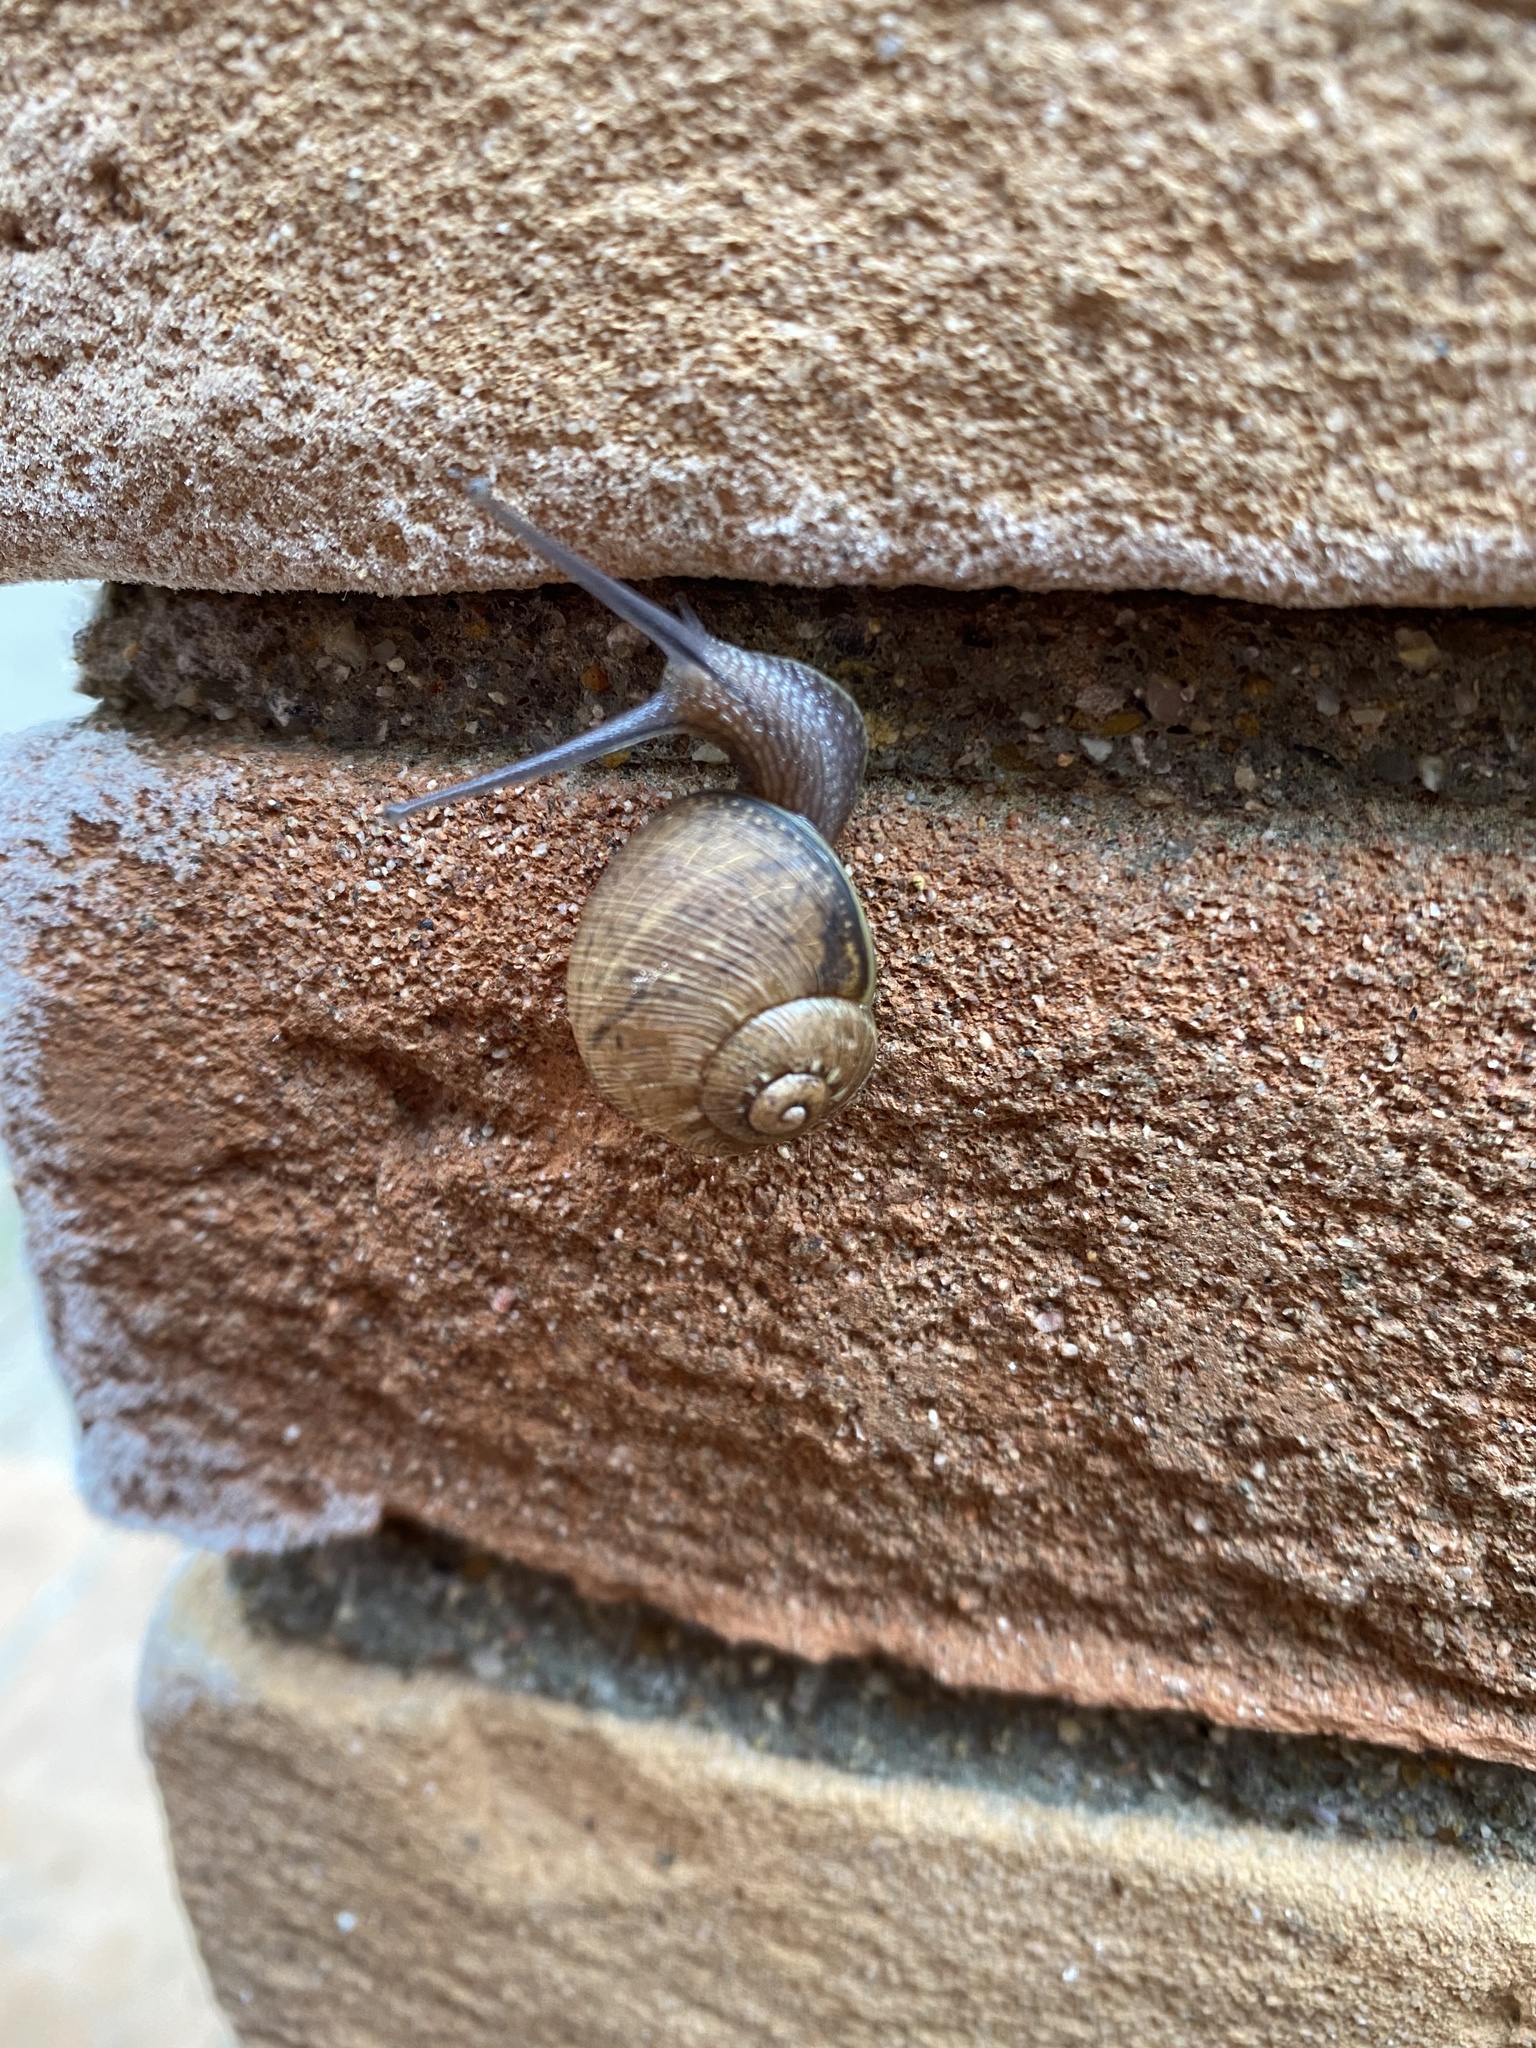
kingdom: Animalia
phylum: Mollusca
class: Gastropoda
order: Stylommatophora
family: Helicidae
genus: Cornu
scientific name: Cornu aspersum
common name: Brown garden snail
